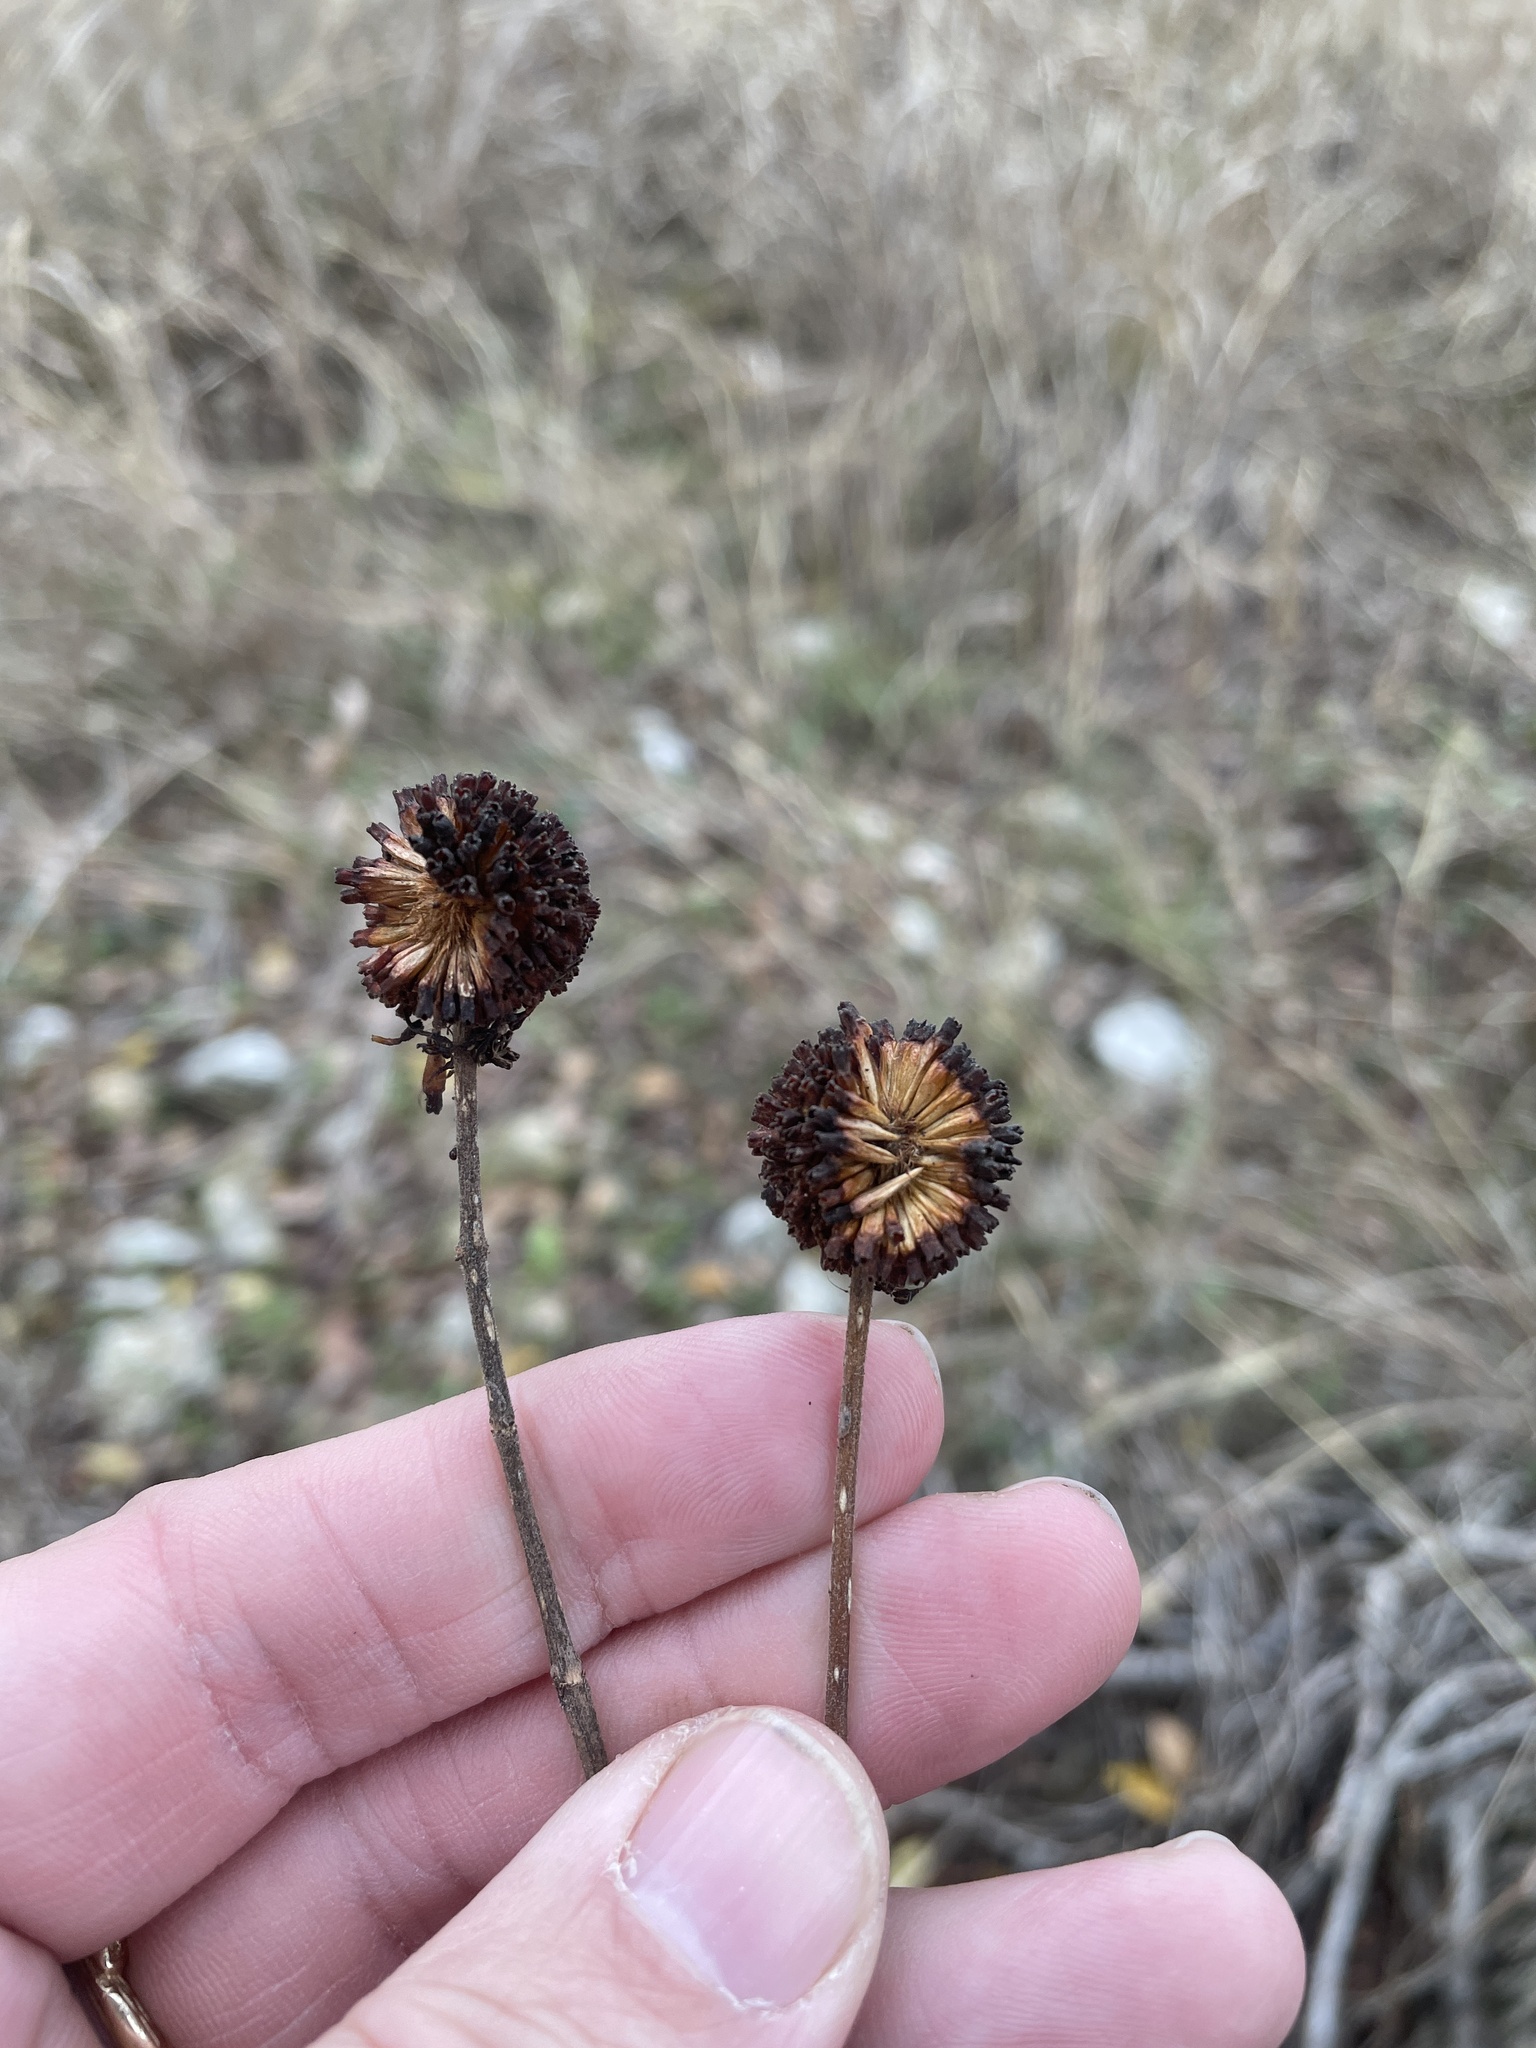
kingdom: Plantae
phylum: Tracheophyta
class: Magnoliopsida
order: Gentianales
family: Rubiaceae
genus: Cephalanthus
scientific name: Cephalanthus occidentalis
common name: Button-willow
